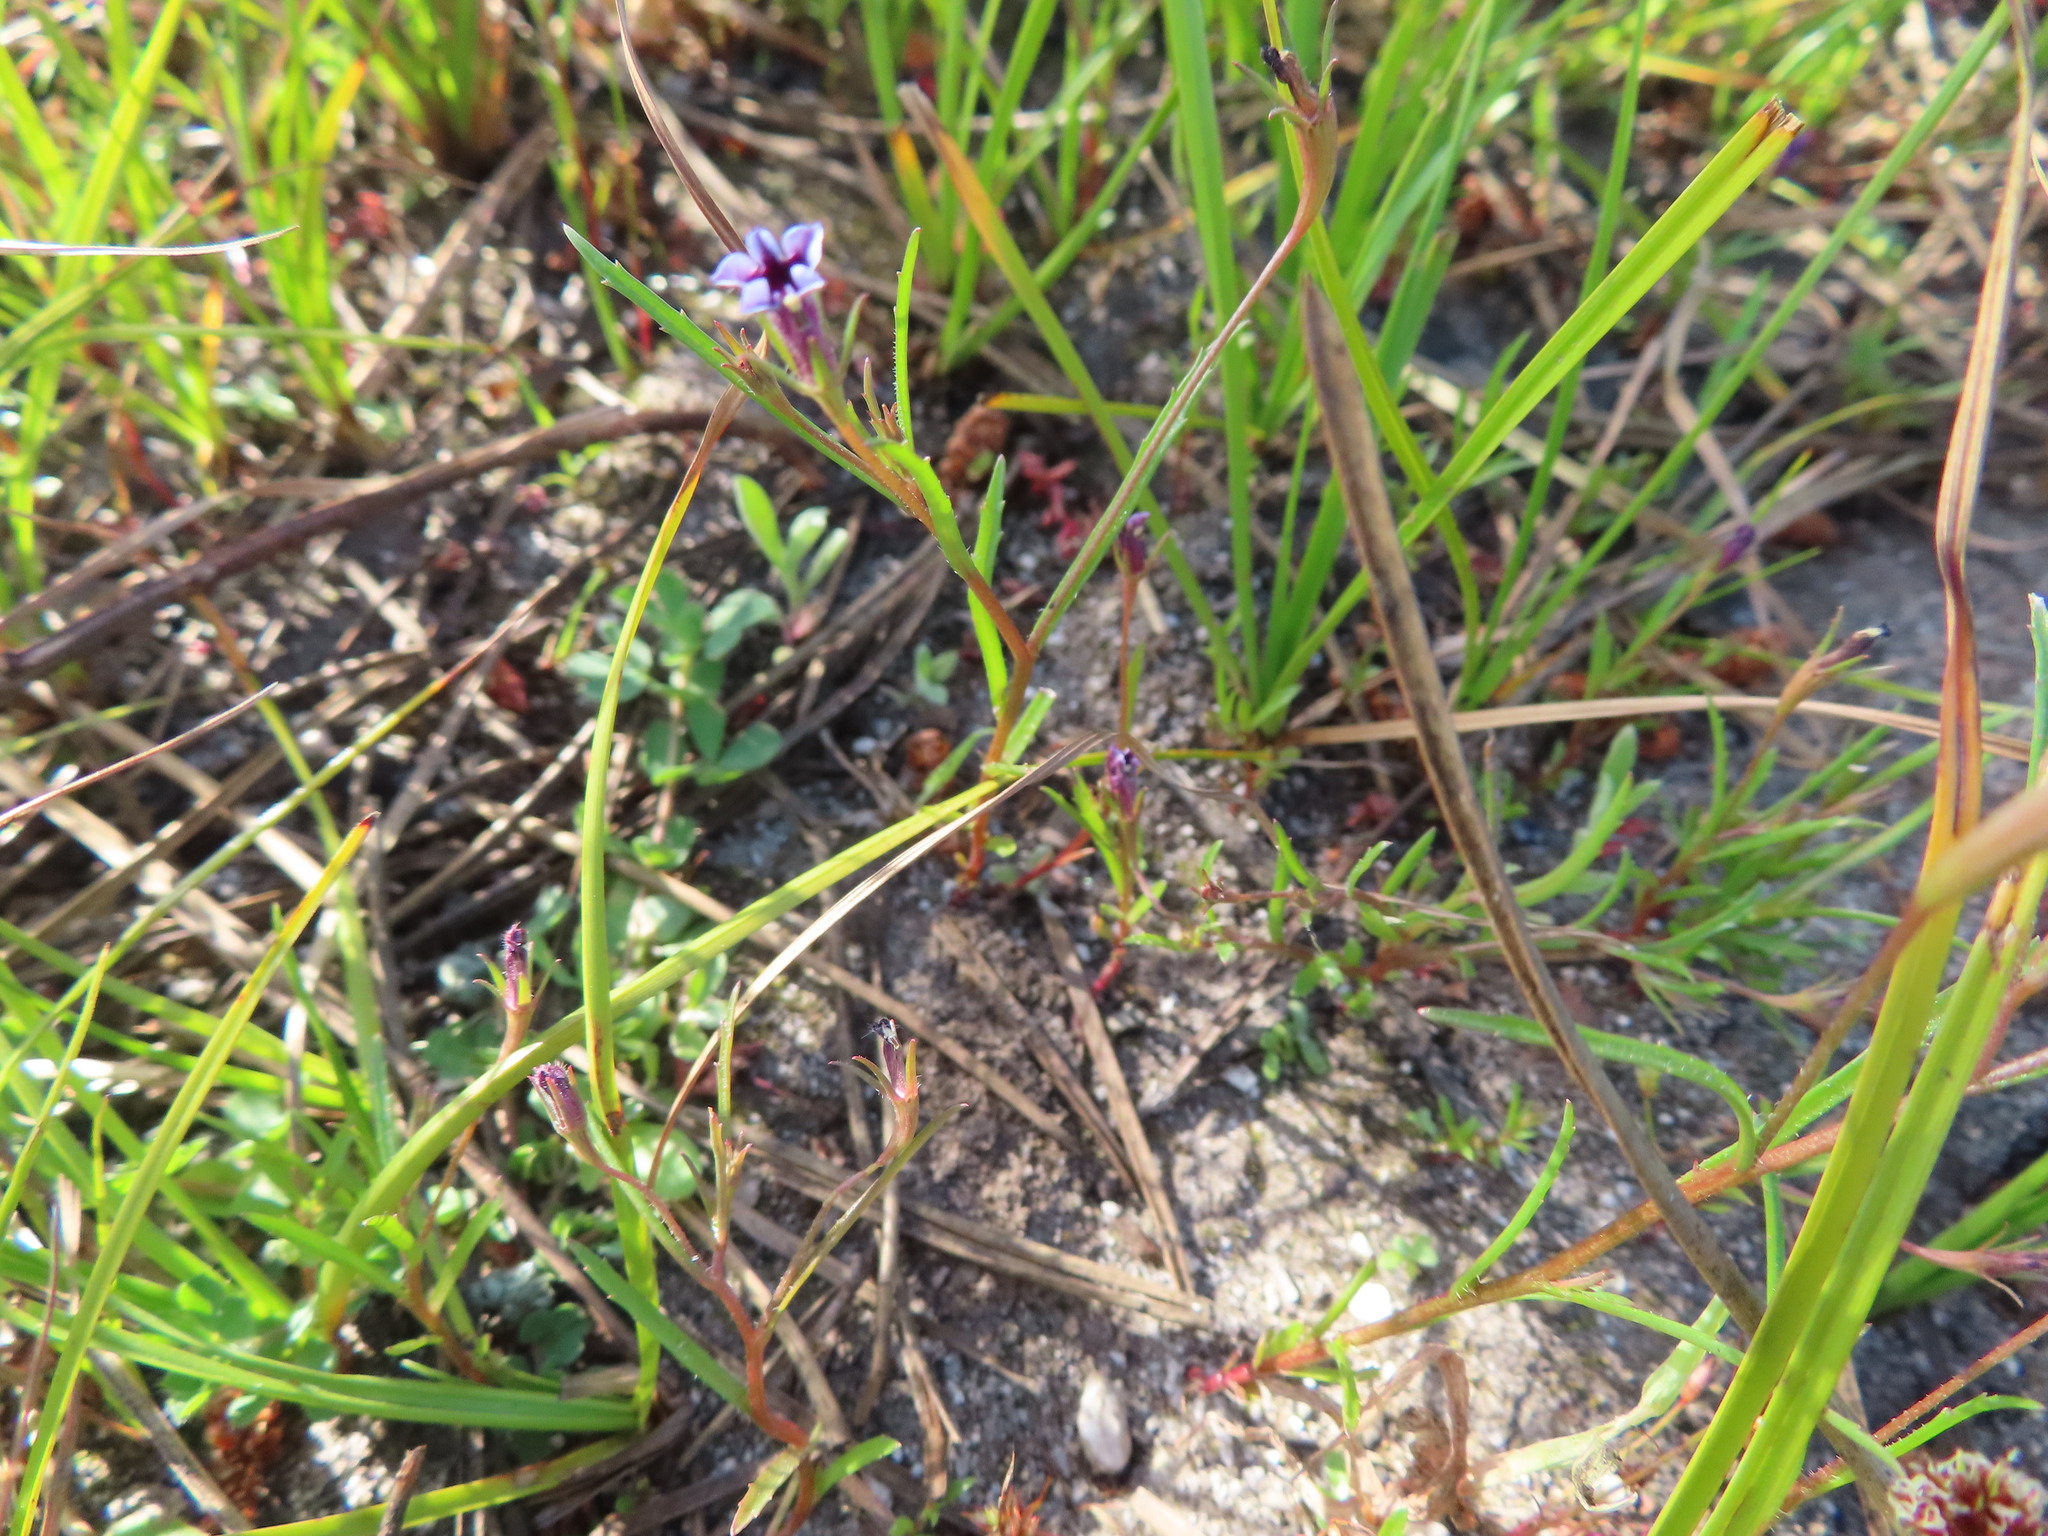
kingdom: Plantae
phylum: Tracheophyta
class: Magnoliopsida
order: Asterales
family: Campanulaceae
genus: Monopsis
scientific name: Monopsis debilis
